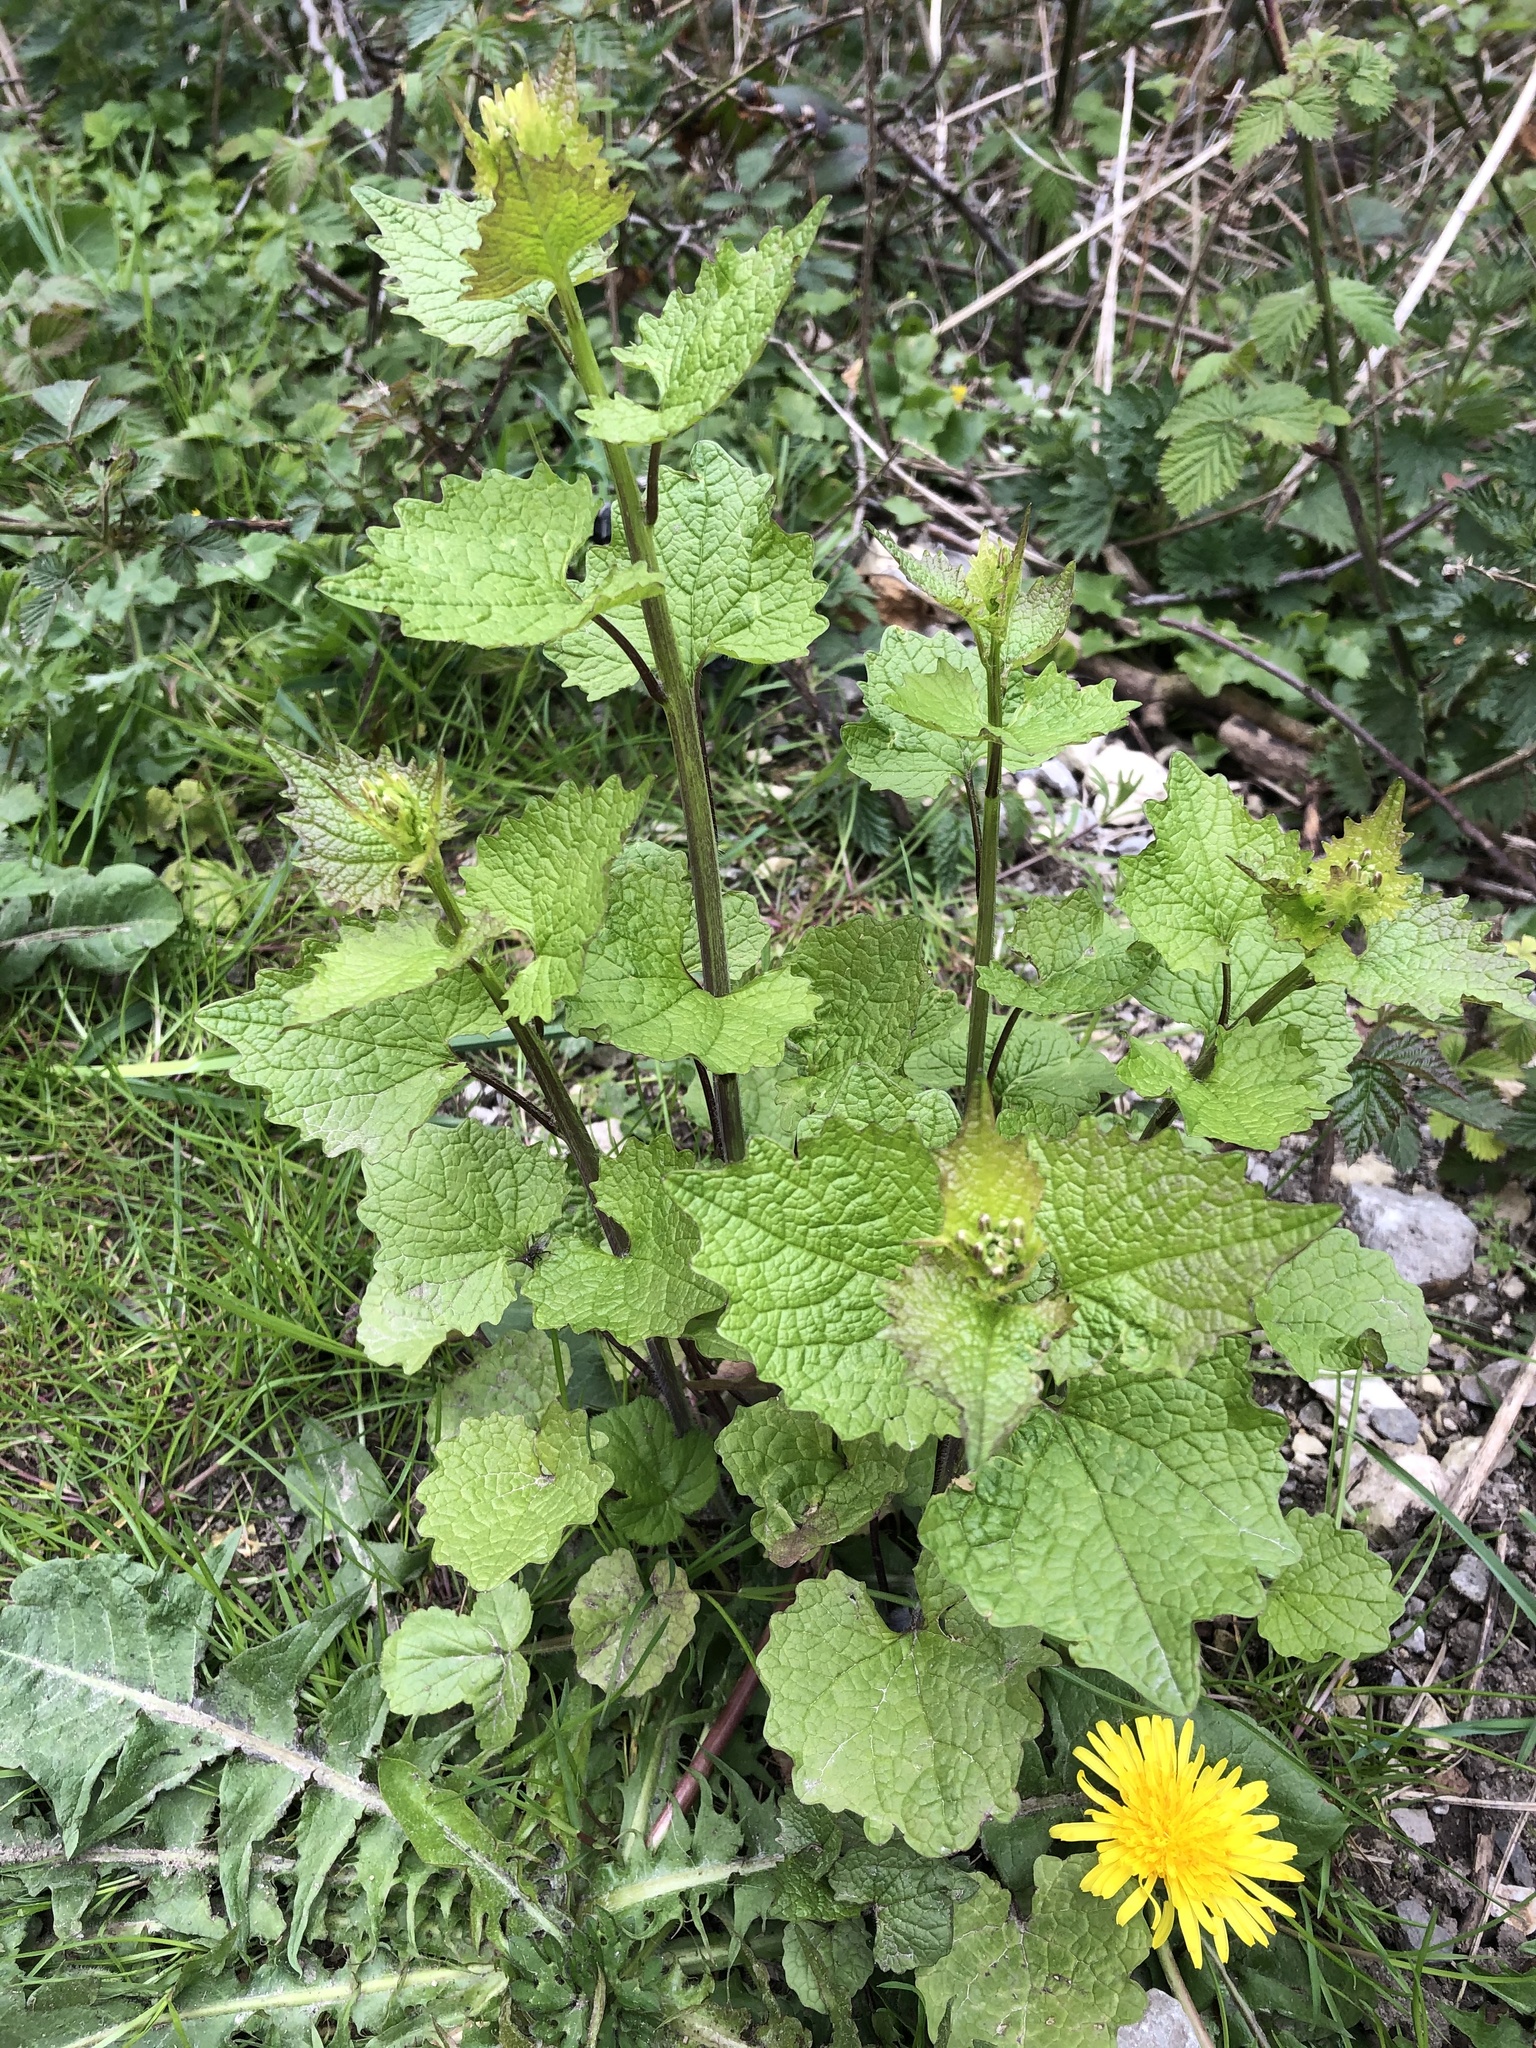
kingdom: Plantae
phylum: Tracheophyta
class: Magnoliopsida
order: Brassicales
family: Brassicaceae
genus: Alliaria
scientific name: Alliaria petiolata
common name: Garlic mustard
